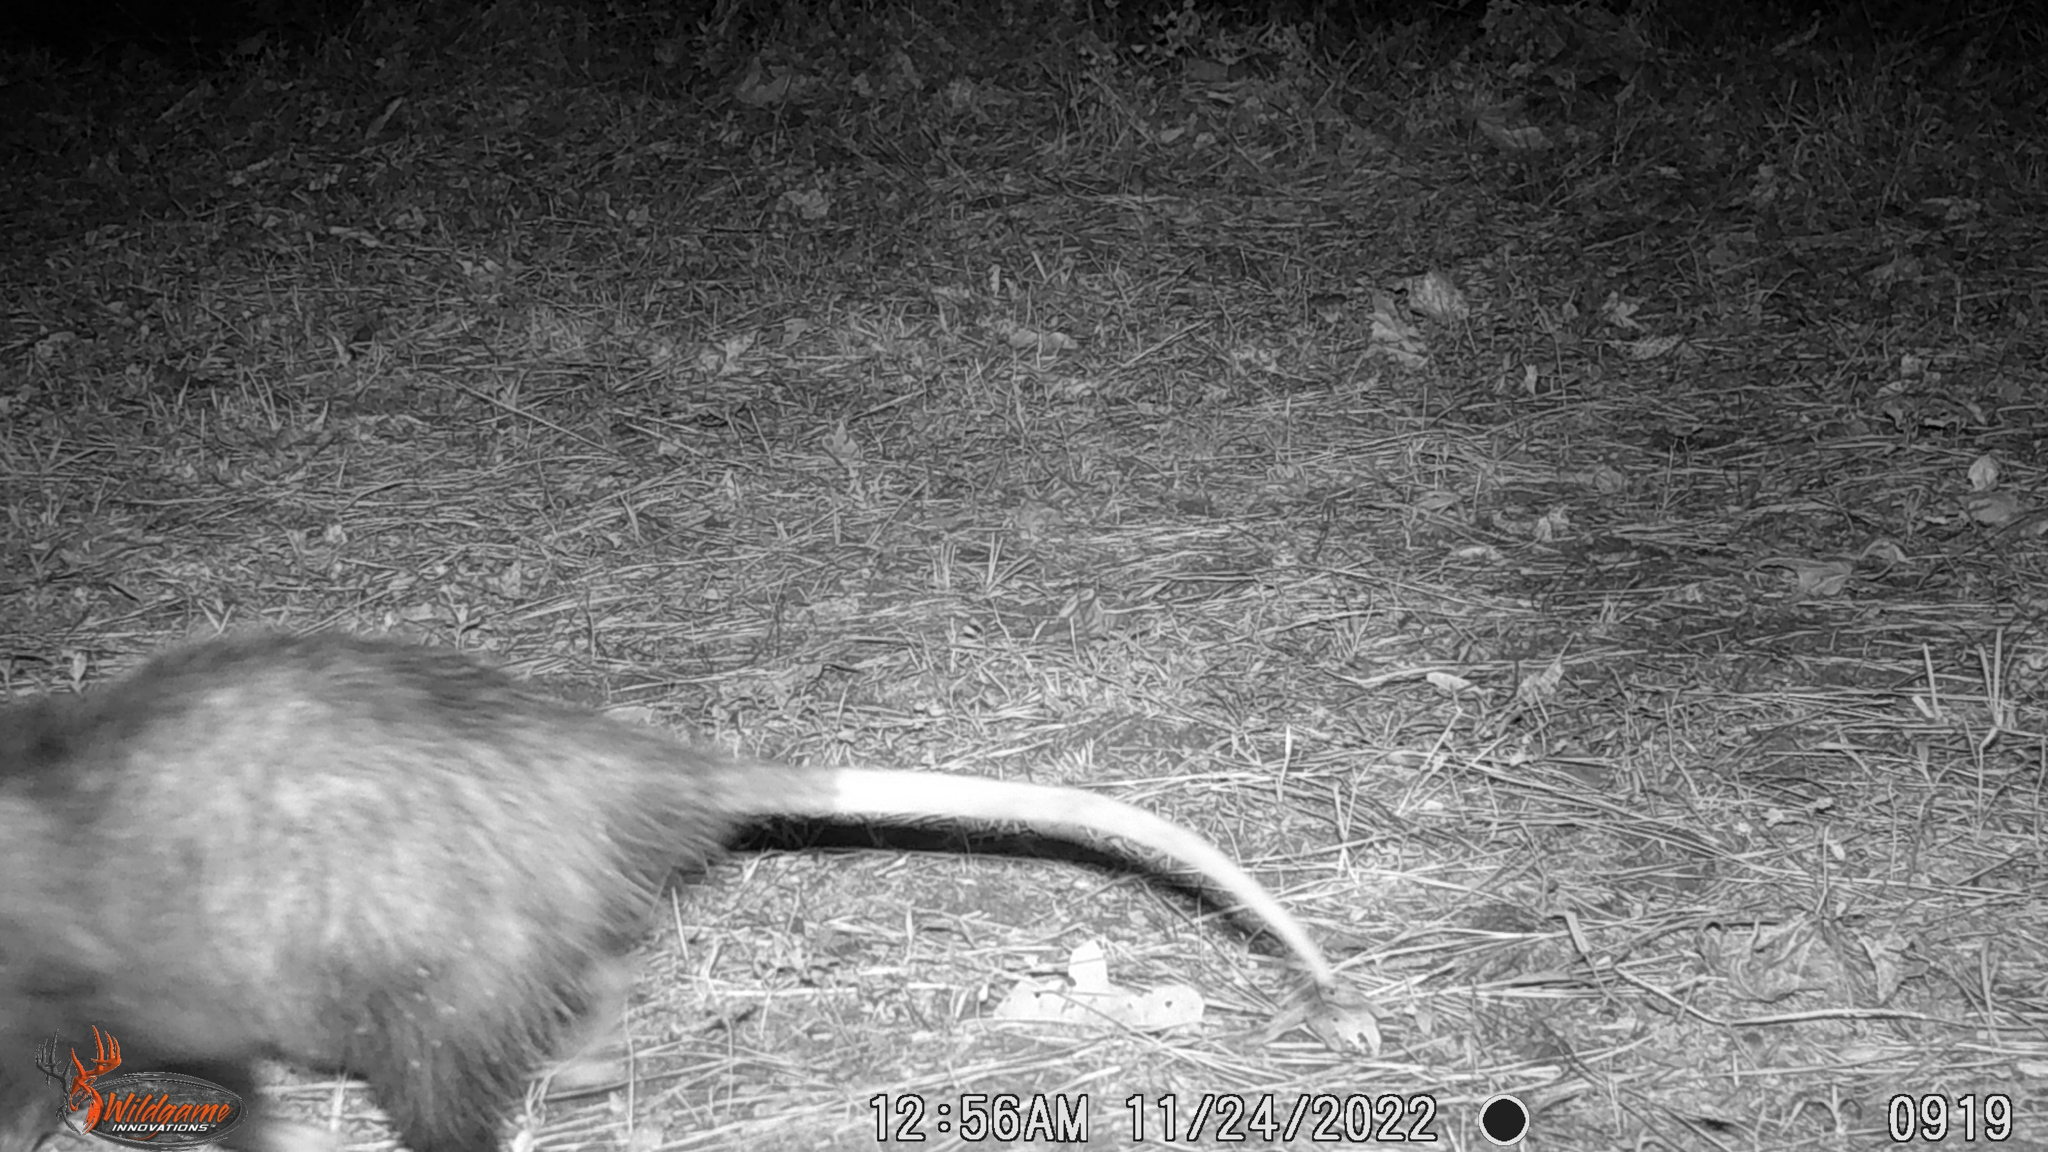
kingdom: Animalia
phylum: Chordata
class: Mammalia
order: Didelphimorphia
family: Didelphidae
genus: Didelphis
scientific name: Didelphis virginiana
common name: Virginia opossum
